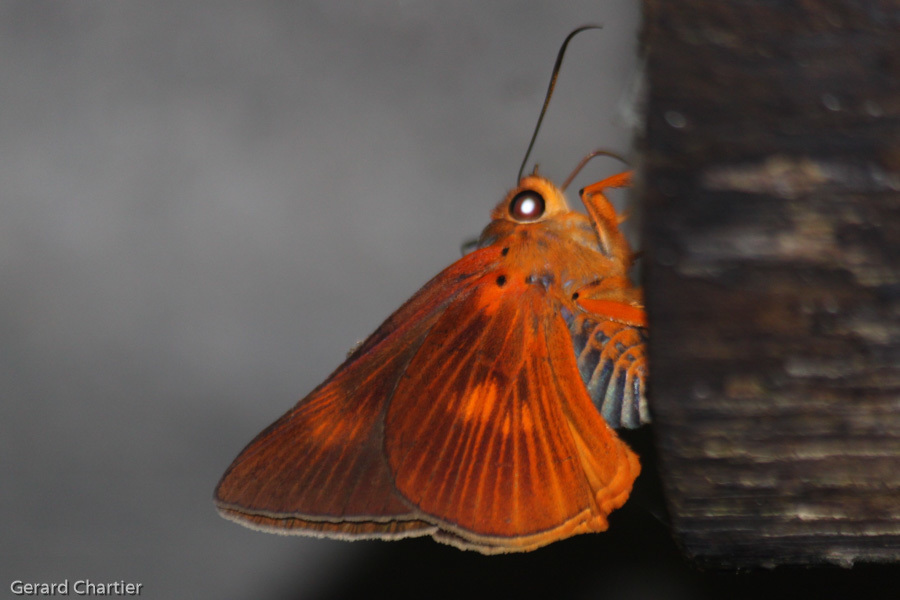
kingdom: Animalia
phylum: Arthropoda
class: Insecta
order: Lepidoptera
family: Hesperiidae
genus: Bibasis
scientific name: Bibasis etelka
